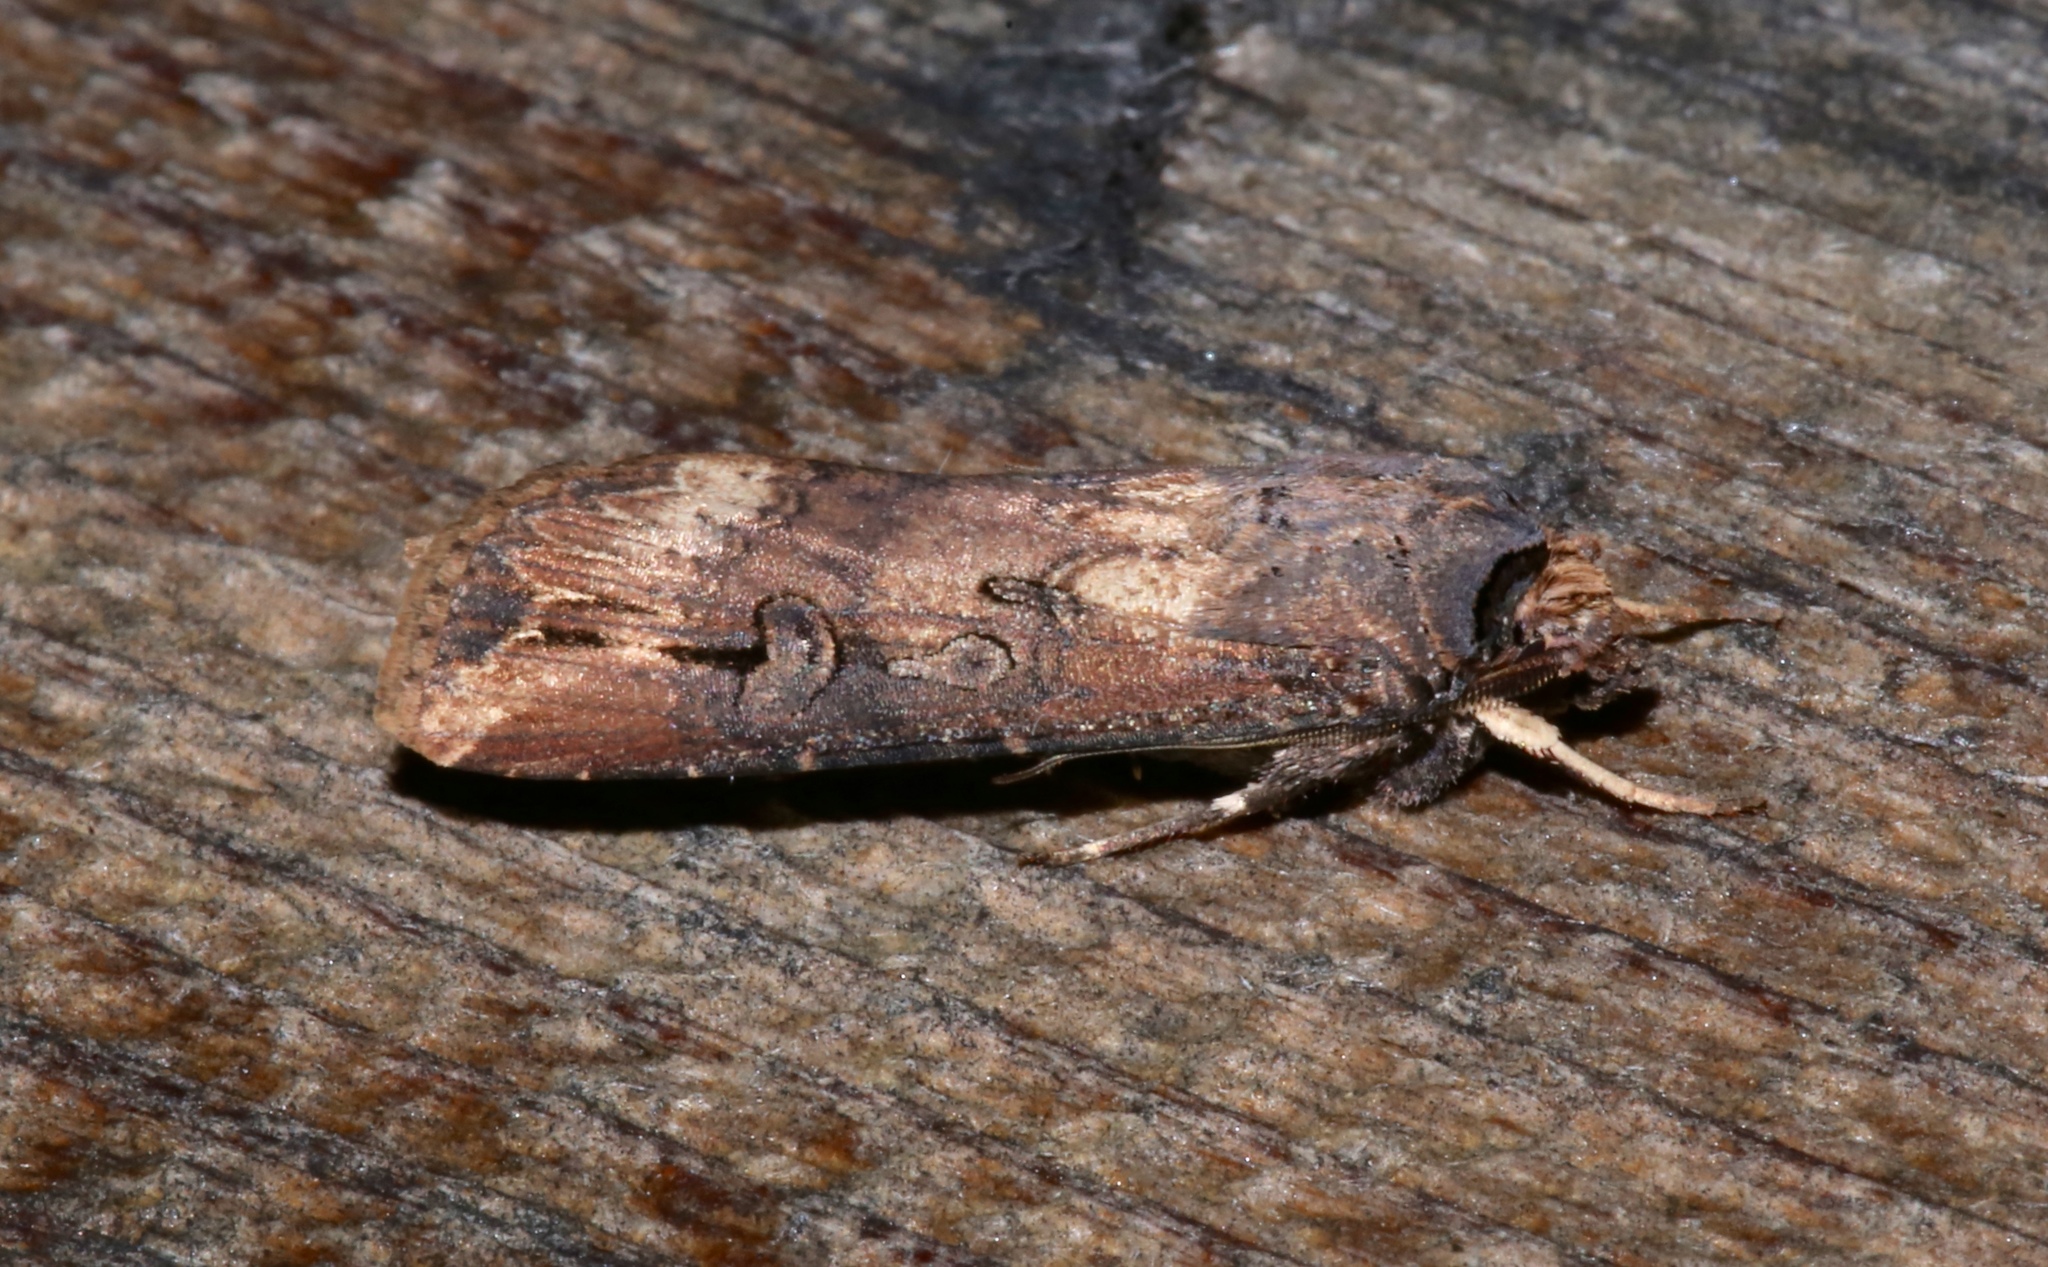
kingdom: Animalia
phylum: Arthropoda
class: Insecta
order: Lepidoptera
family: Noctuidae
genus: Agrotis
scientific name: Agrotis ipsilon
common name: Dark sword-grass
